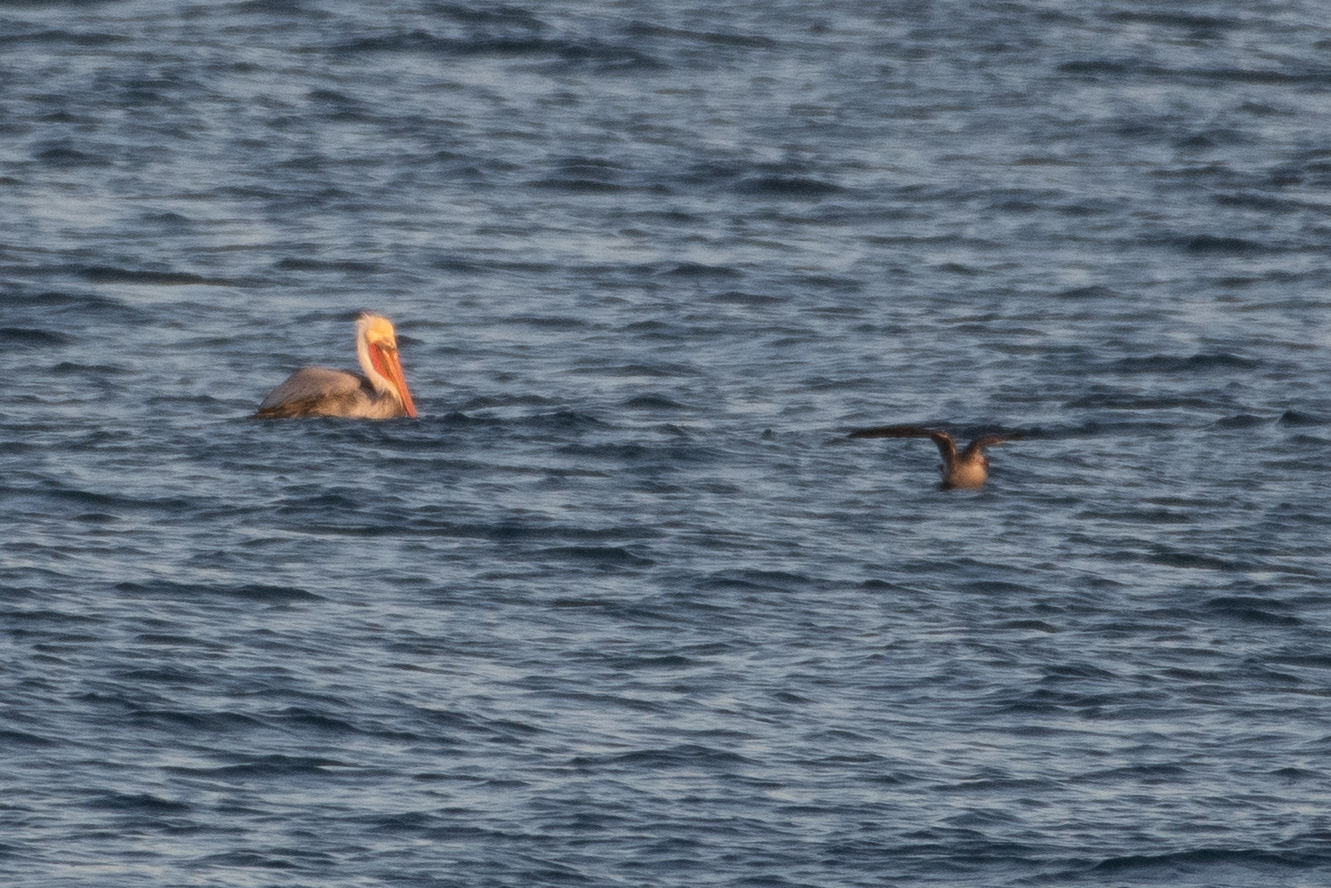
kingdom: Animalia
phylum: Chordata
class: Aves
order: Pelecaniformes
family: Pelecanidae
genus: Pelecanus
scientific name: Pelecanus occidentalis
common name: Brown pelican
